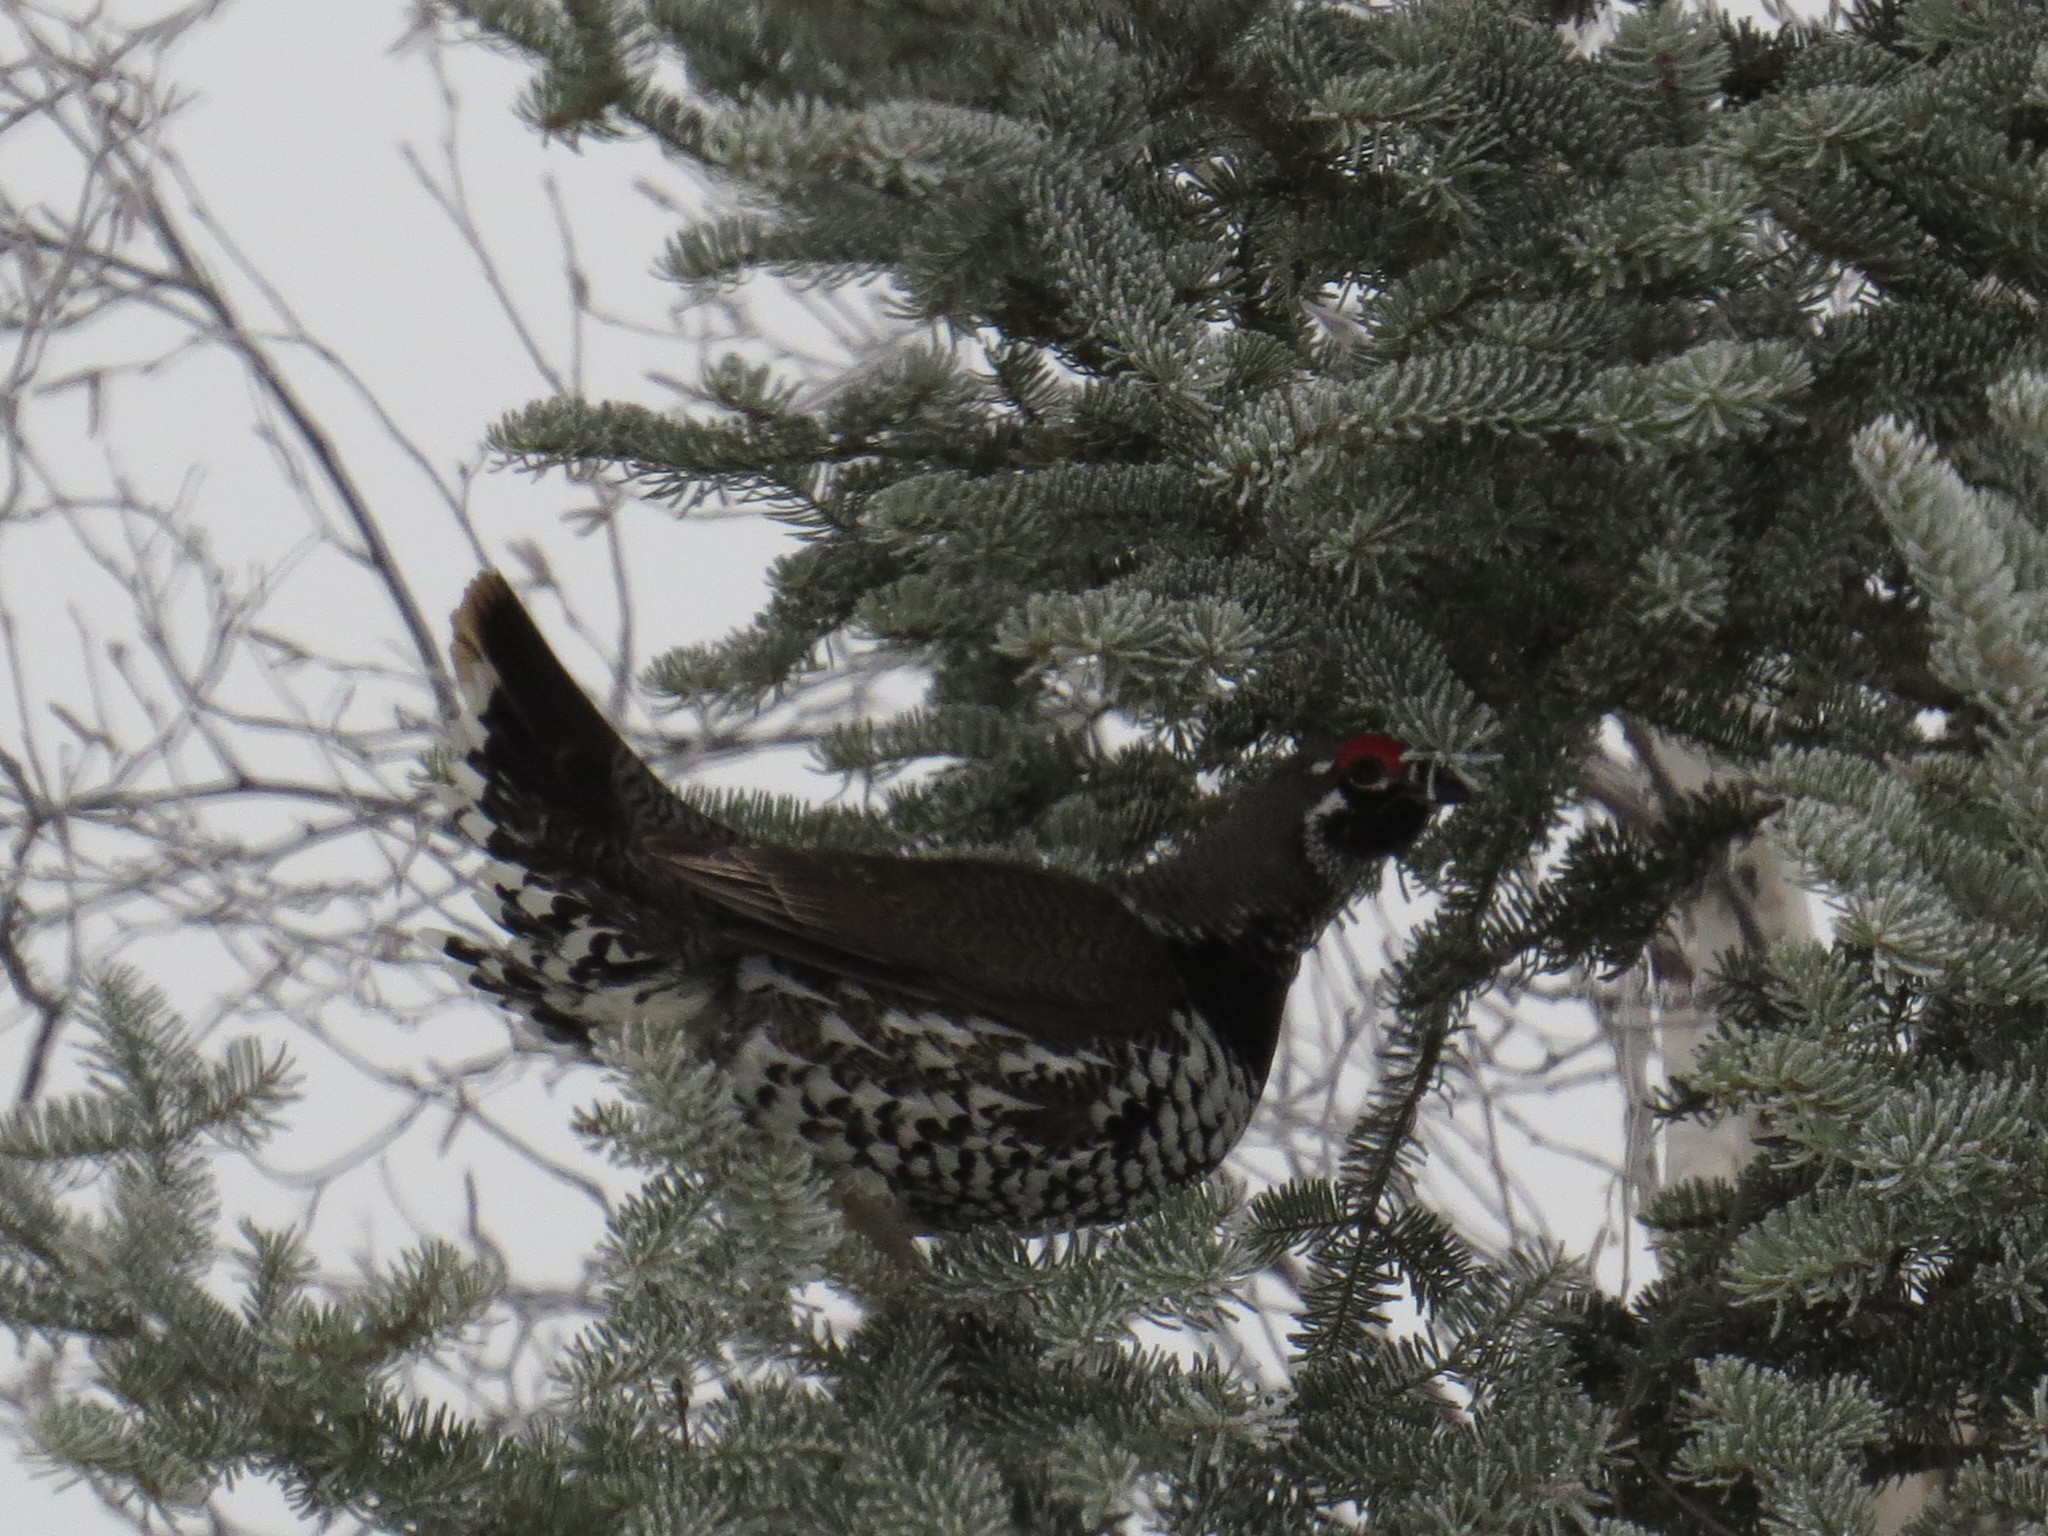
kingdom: Animalia
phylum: Chordata
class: Aves
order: Galliformes
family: Phasianidae
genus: Canachites
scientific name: Canachites canadensis
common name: Spruce grouse
